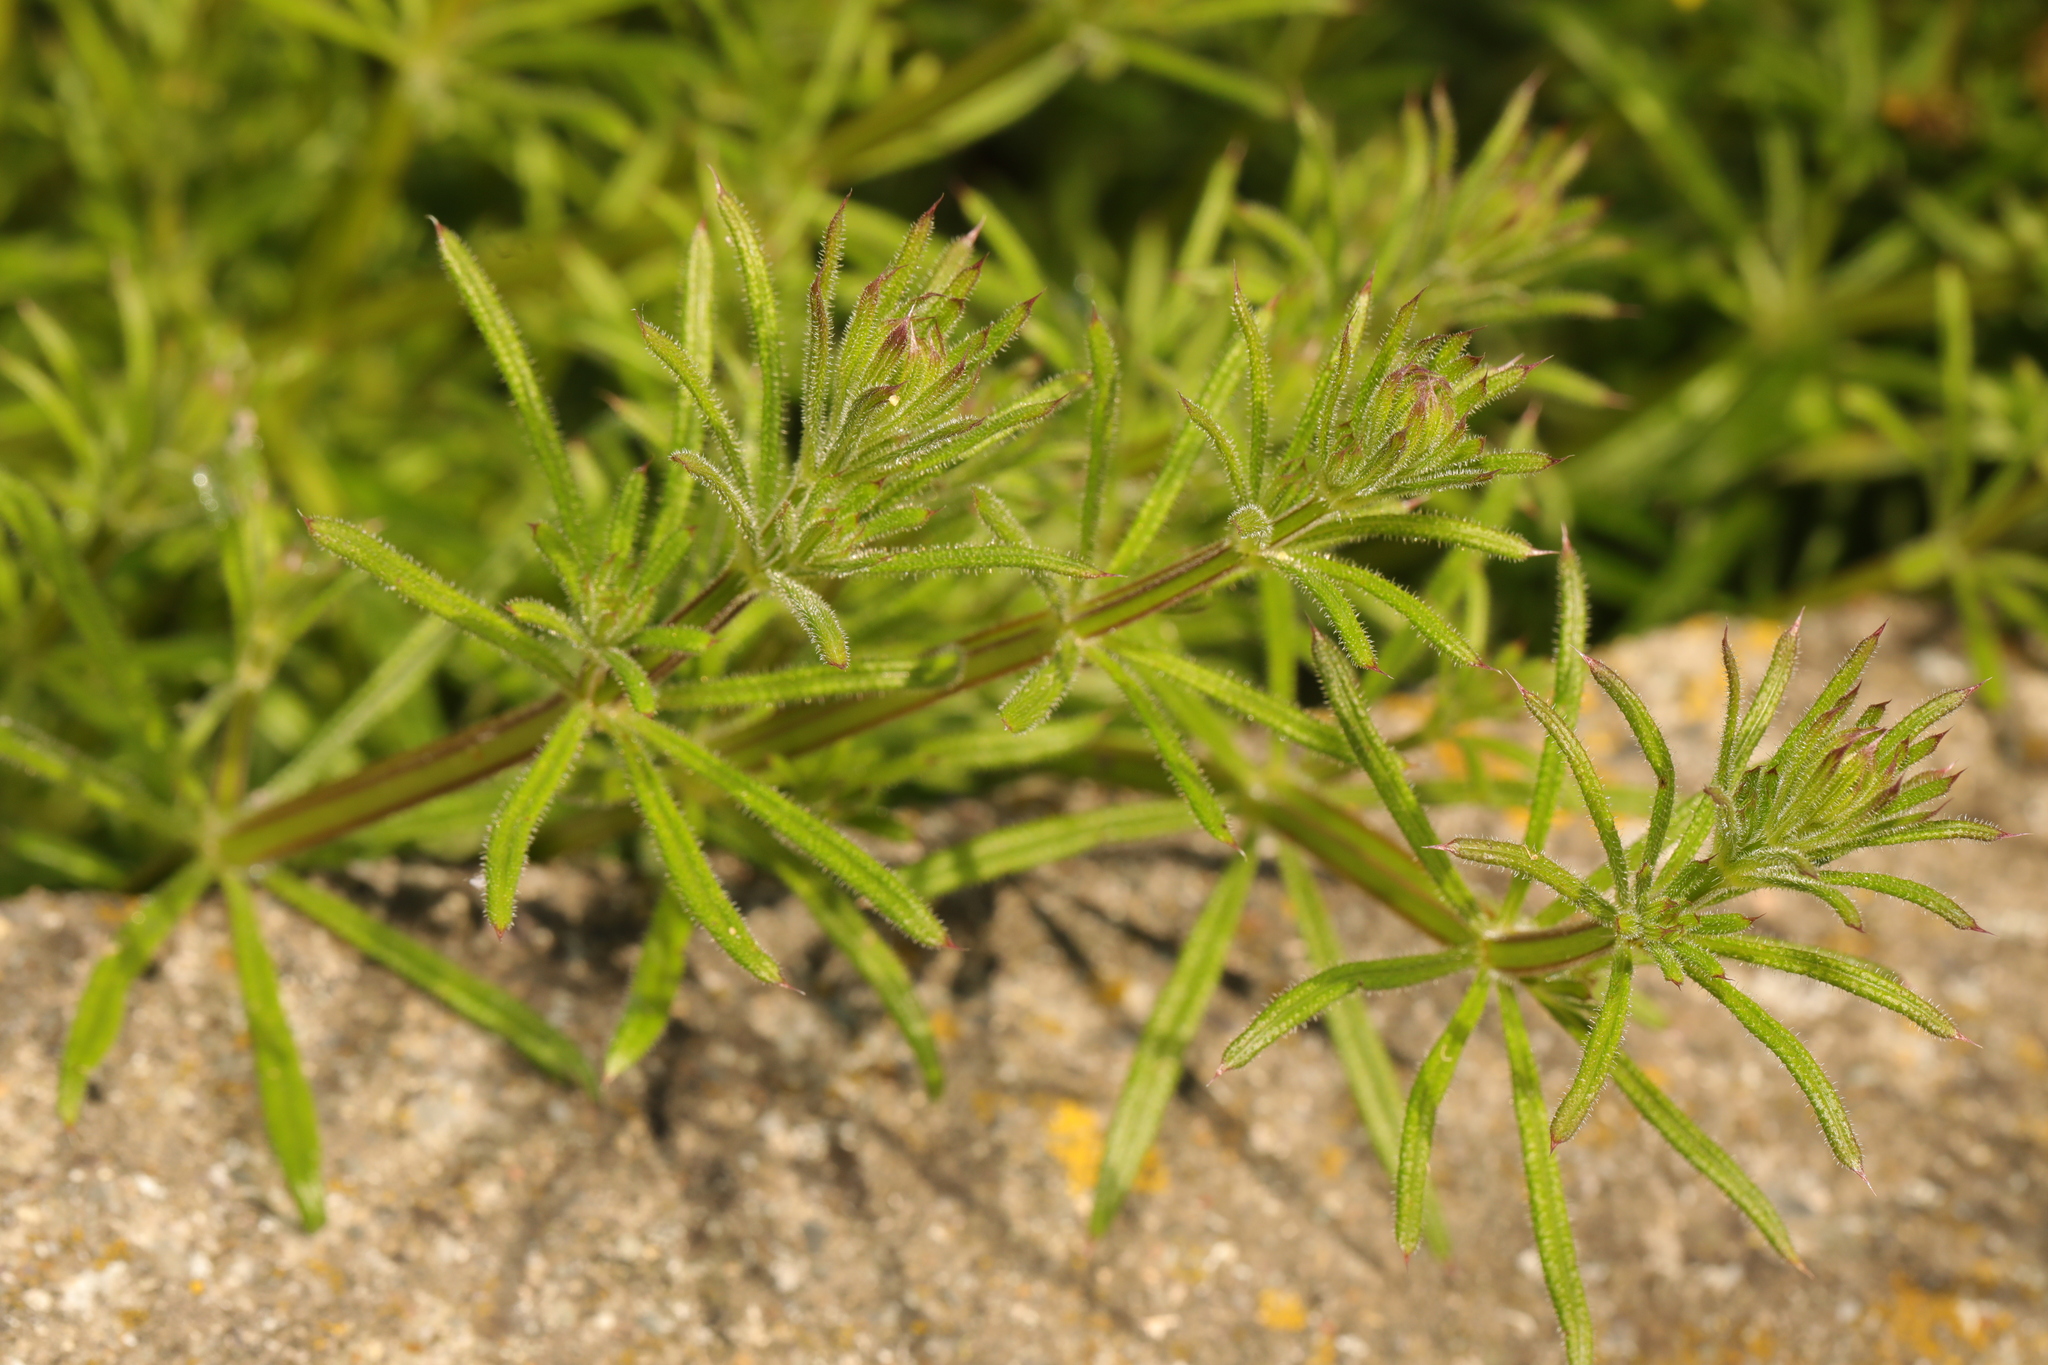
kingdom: Plantae
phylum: Tracheophyta
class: Magnoliopsida
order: Gentianales
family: Rubiaceae
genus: Galium
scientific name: Galium aparine
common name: Cleavers
